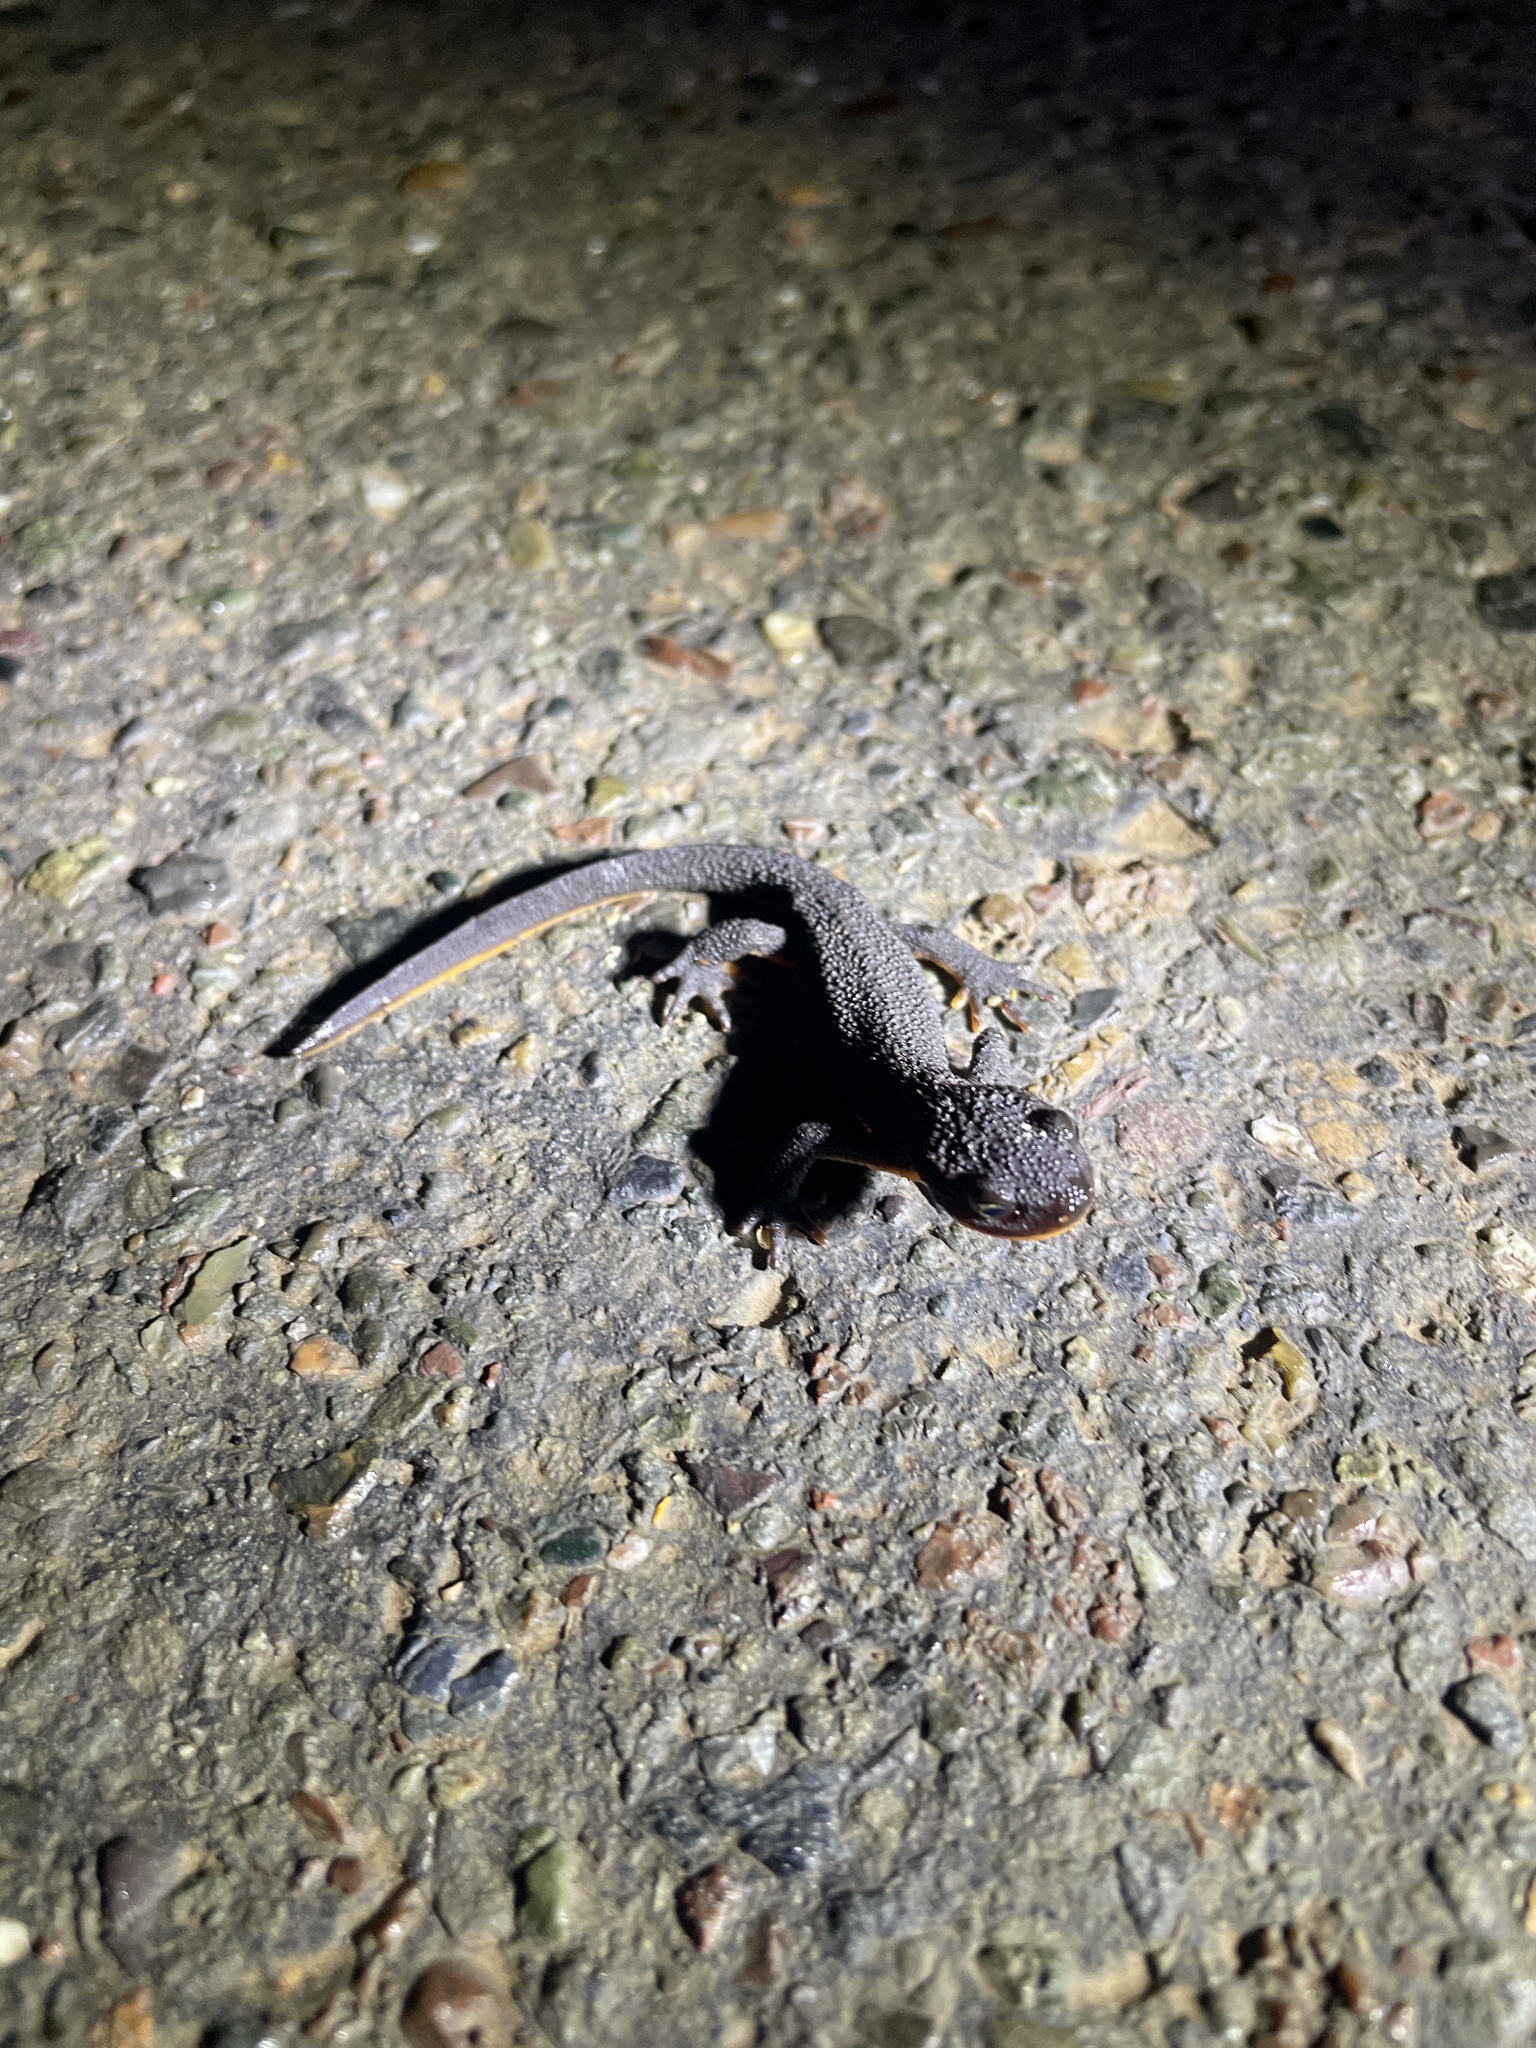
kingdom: Animalia
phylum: Chordata
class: Amphibia
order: Caudata
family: Salamandridae
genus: Taricha
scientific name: Taricha granulosa
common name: Roughskin newt
